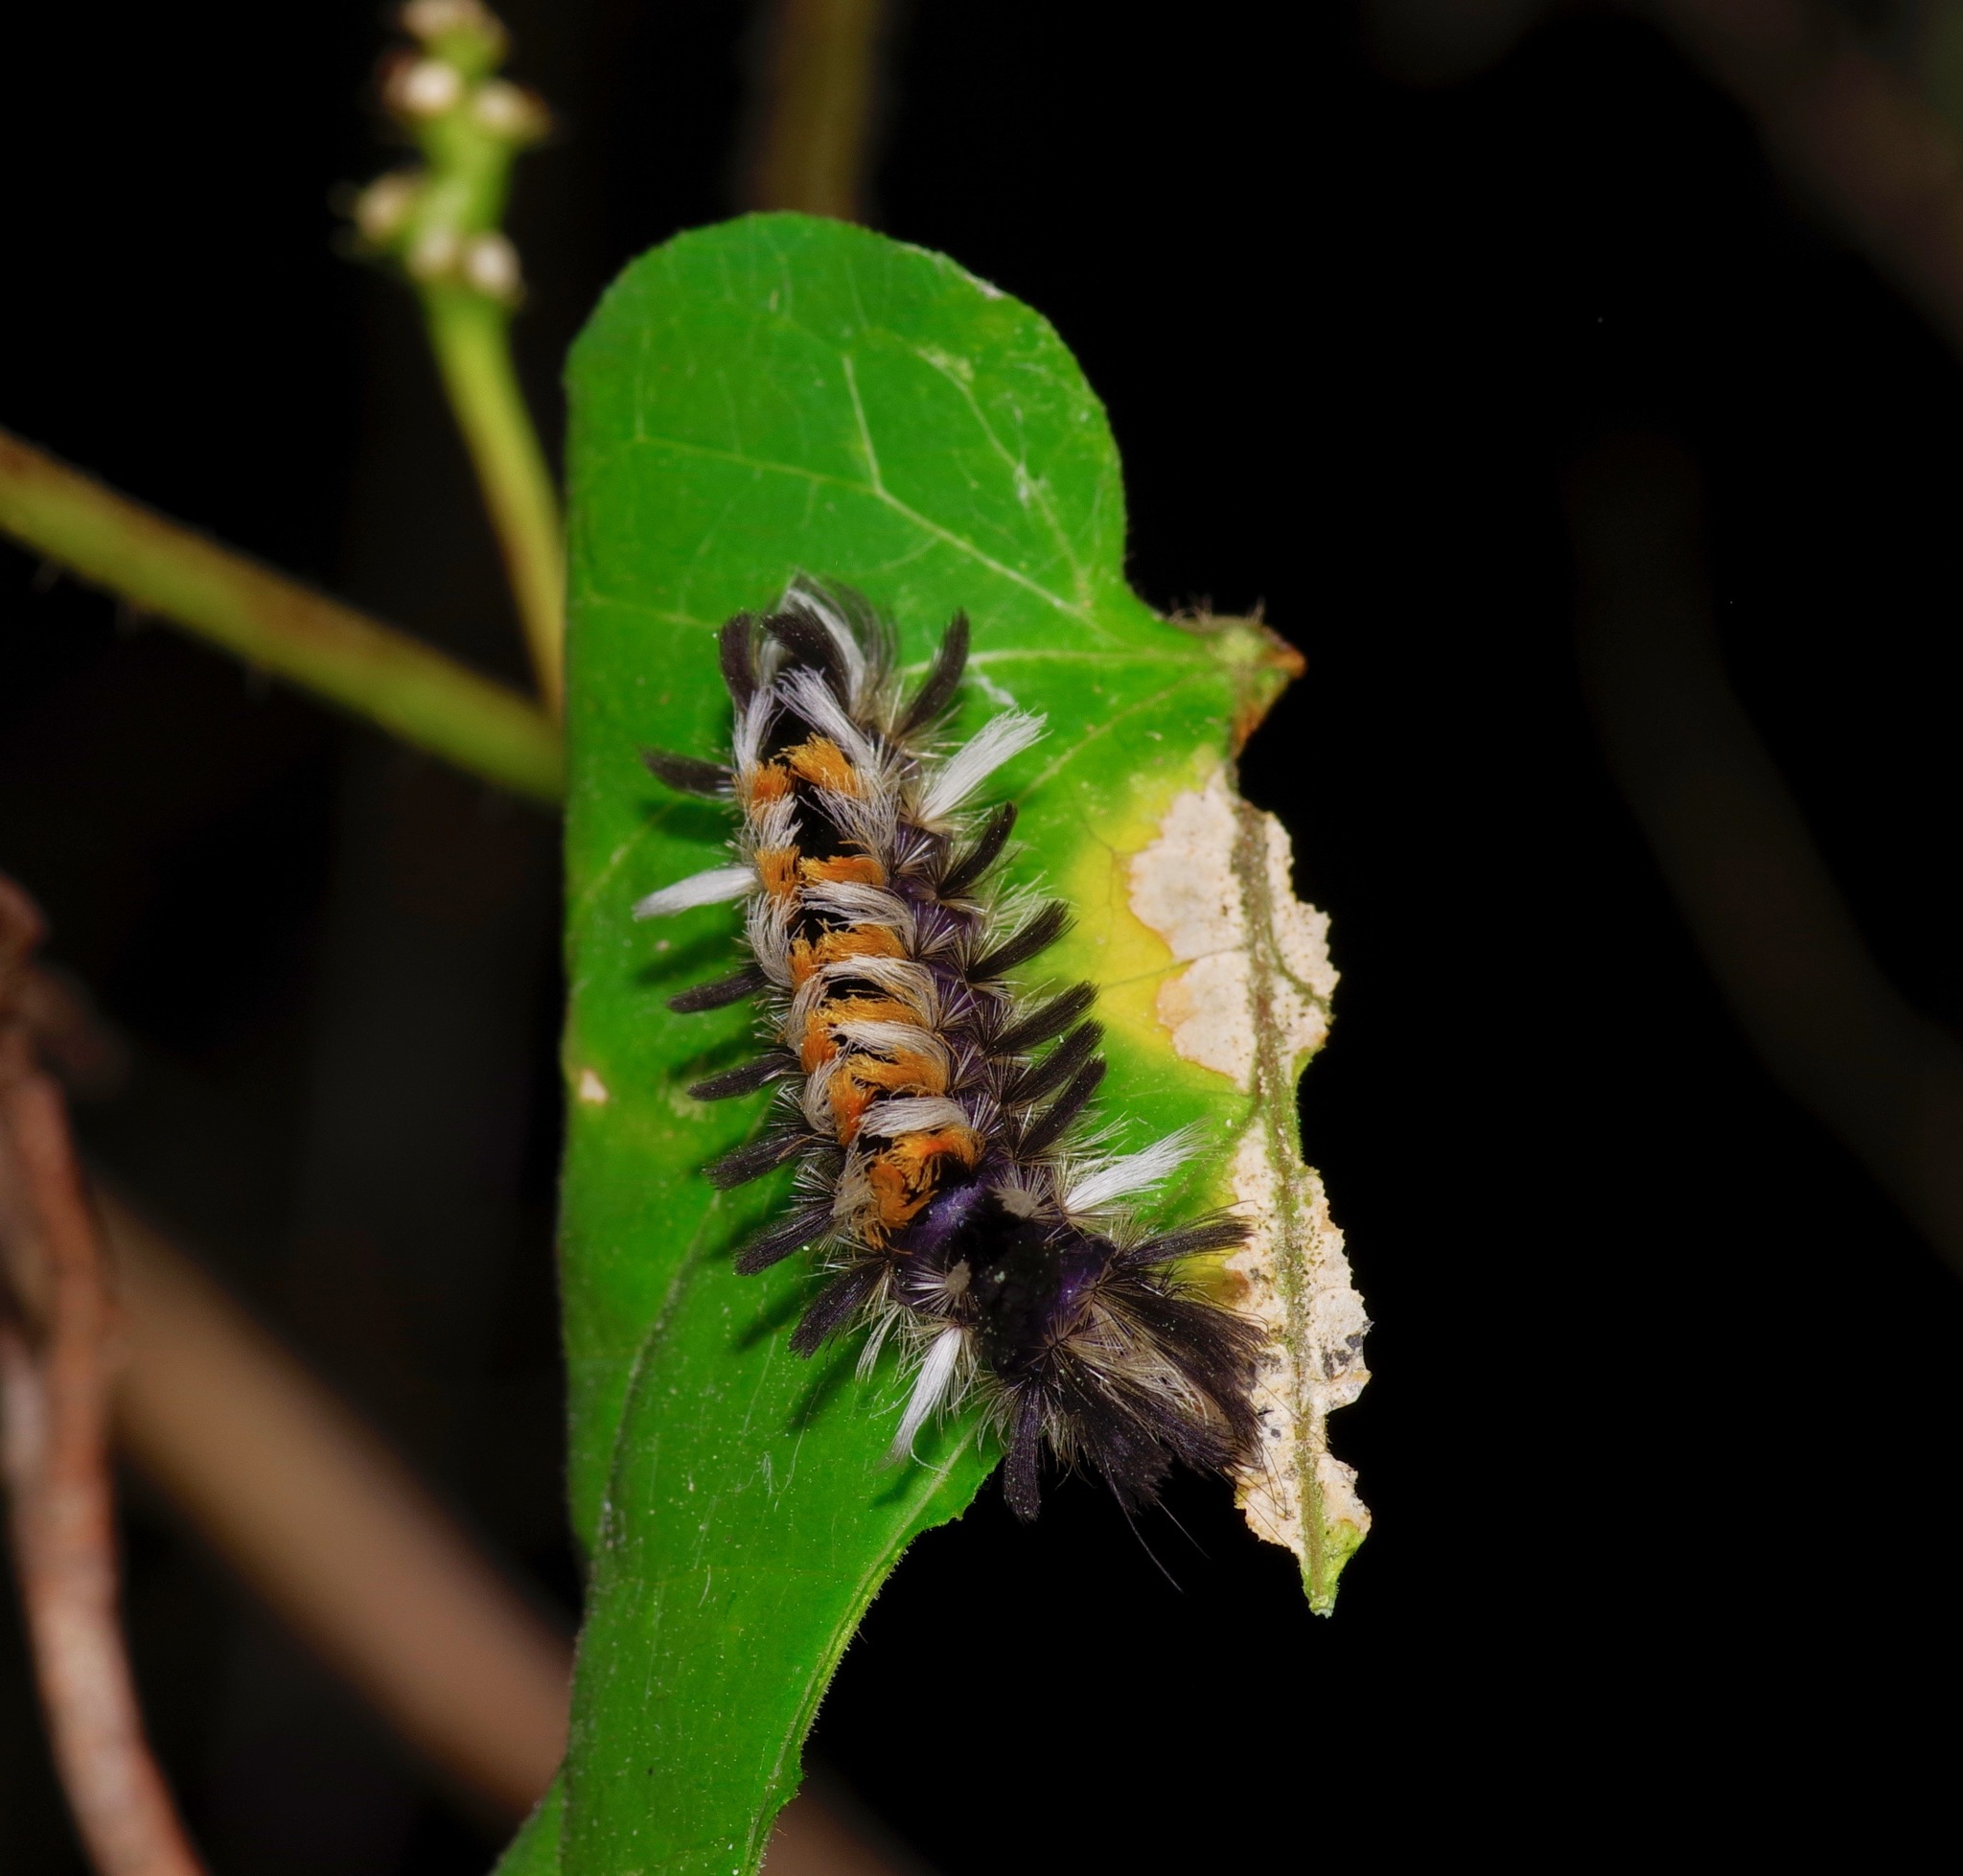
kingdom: Animalia
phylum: Arthropoda
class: Insecta
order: Lepidoptera
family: Erebidae
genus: Euchaetes
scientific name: Euchaetes egle
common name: Milkweed tussock moth
